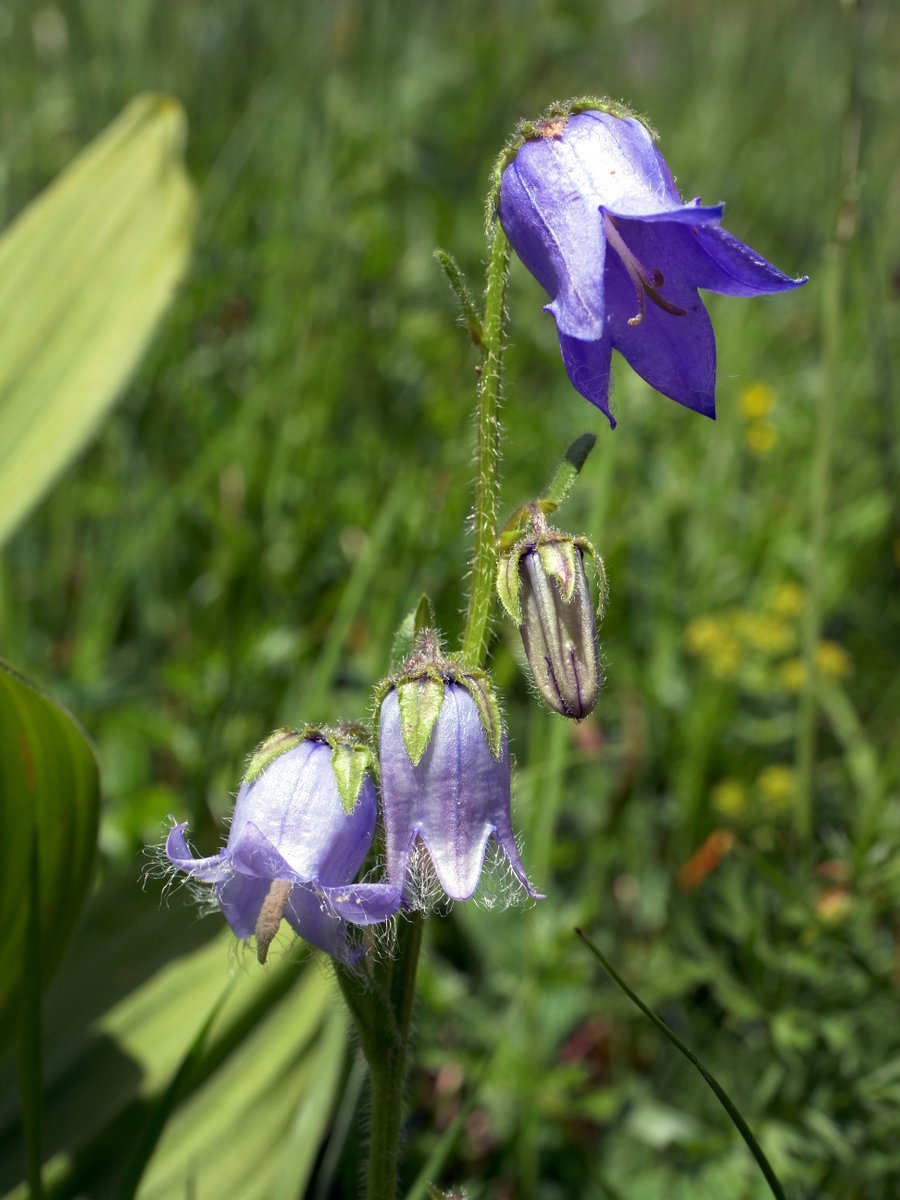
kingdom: Plantae
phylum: Tracheophyta
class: Magnoliopsida
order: Asterales
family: Campanulaceae
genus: Campanula
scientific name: Campanula barbata
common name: Bearded bellflower
